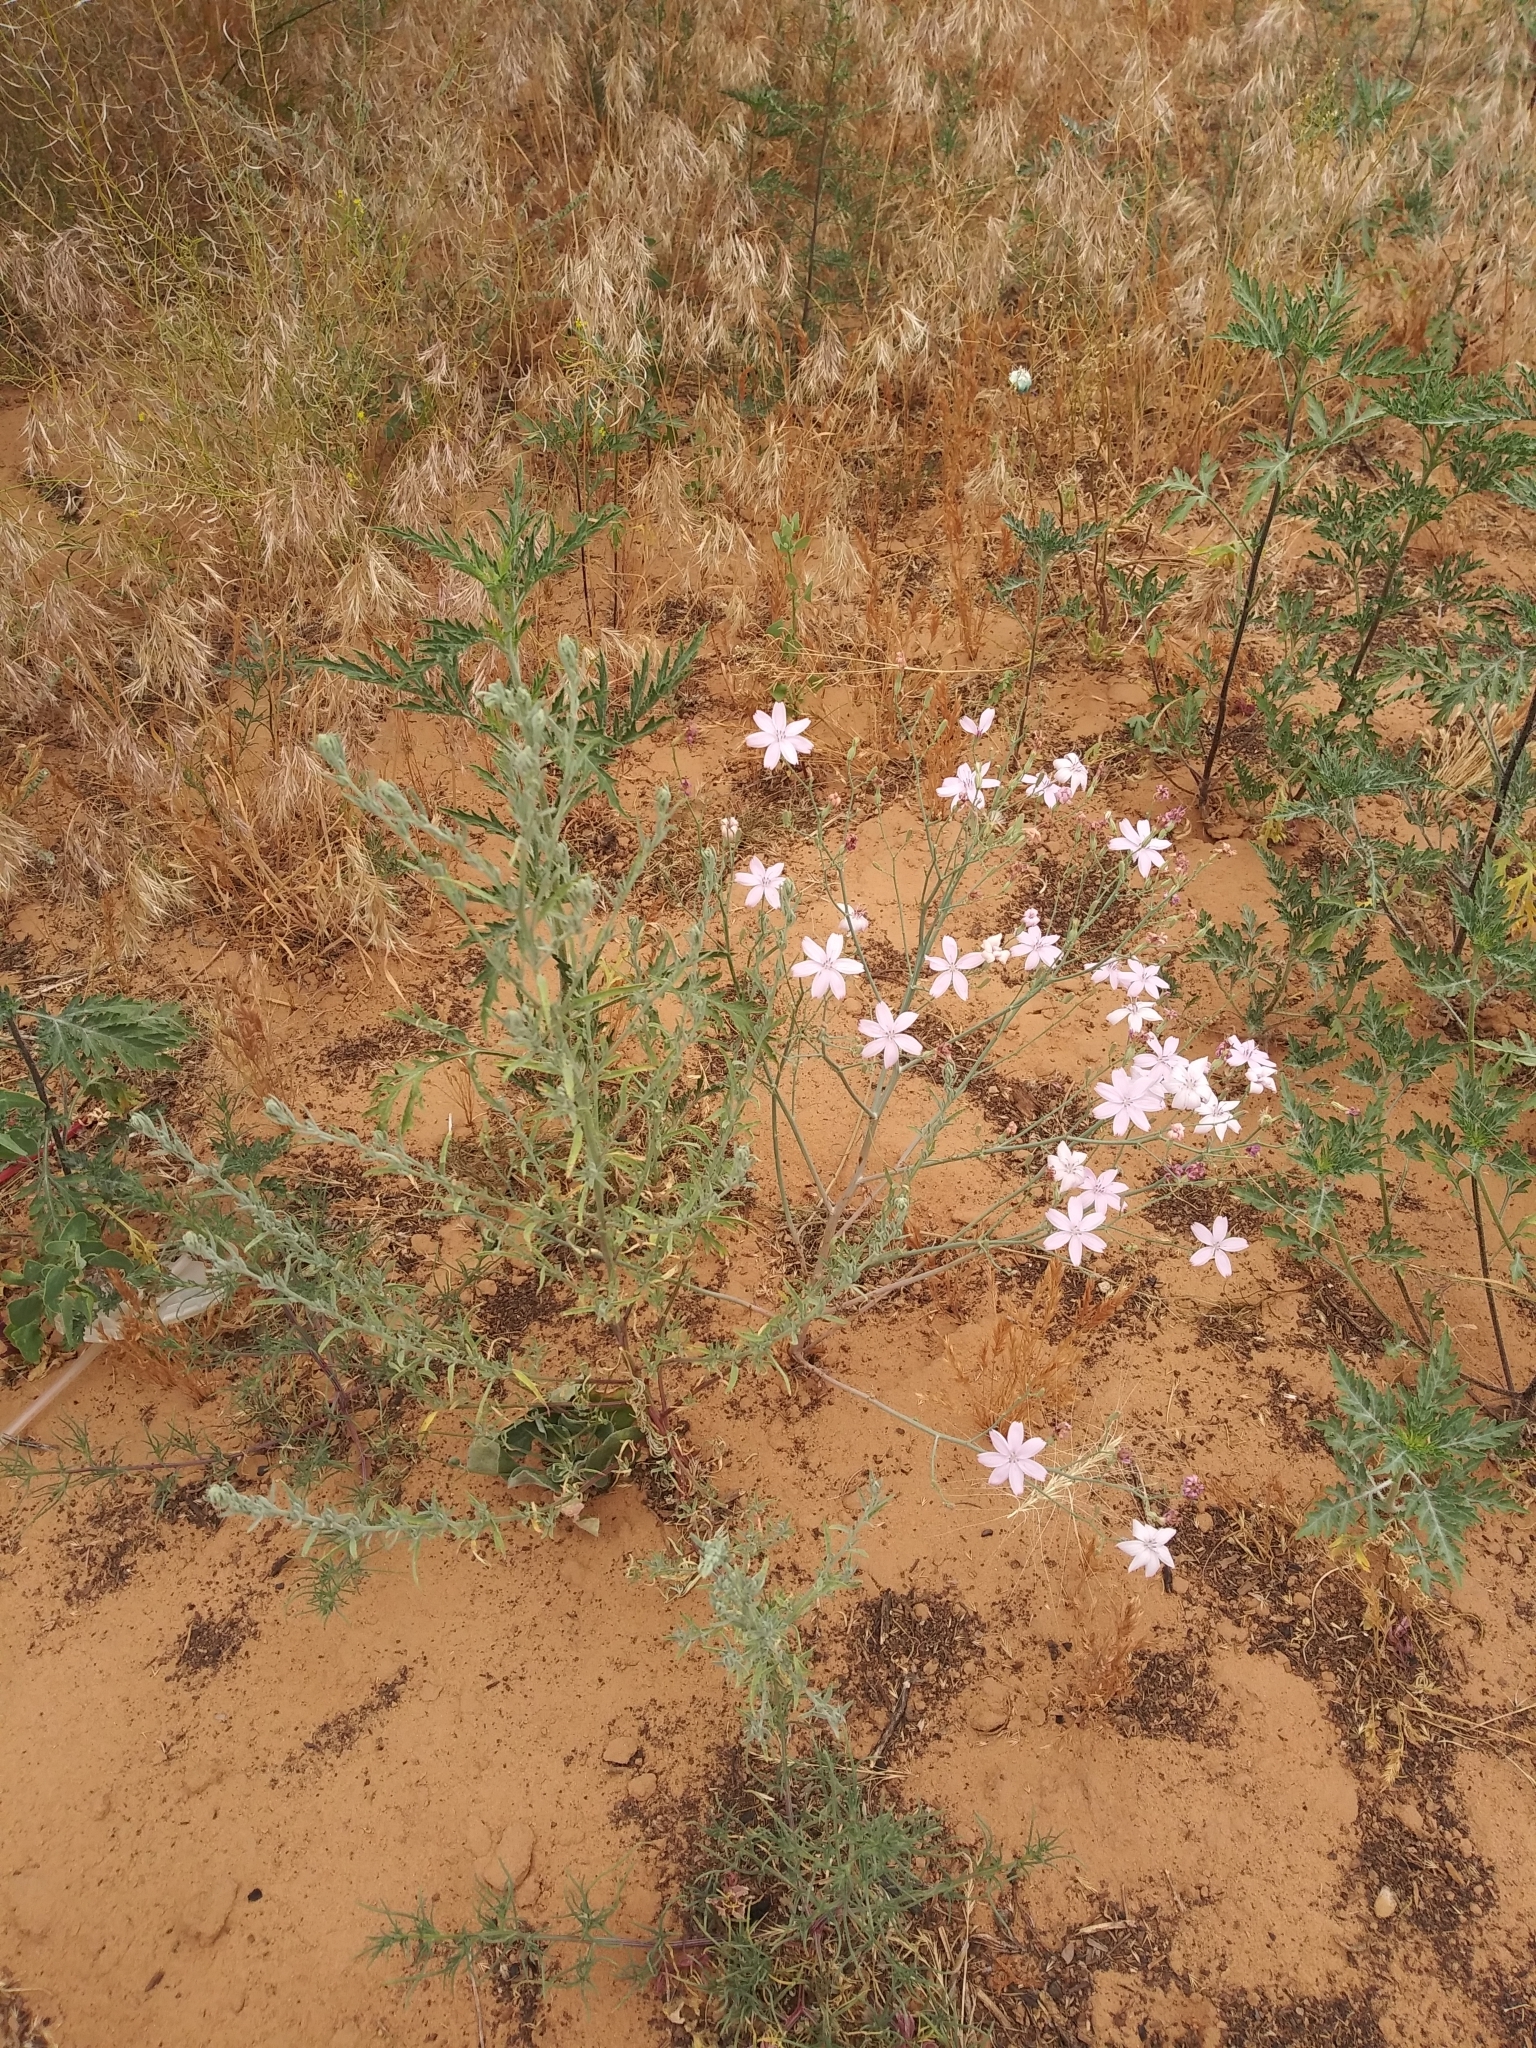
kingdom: Plantae
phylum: Tracheophyta
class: Magnoliopsida
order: Asterales
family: Asteraceae
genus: Lygodesmia
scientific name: Lygodesmia juncea
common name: Common skeletonweed
